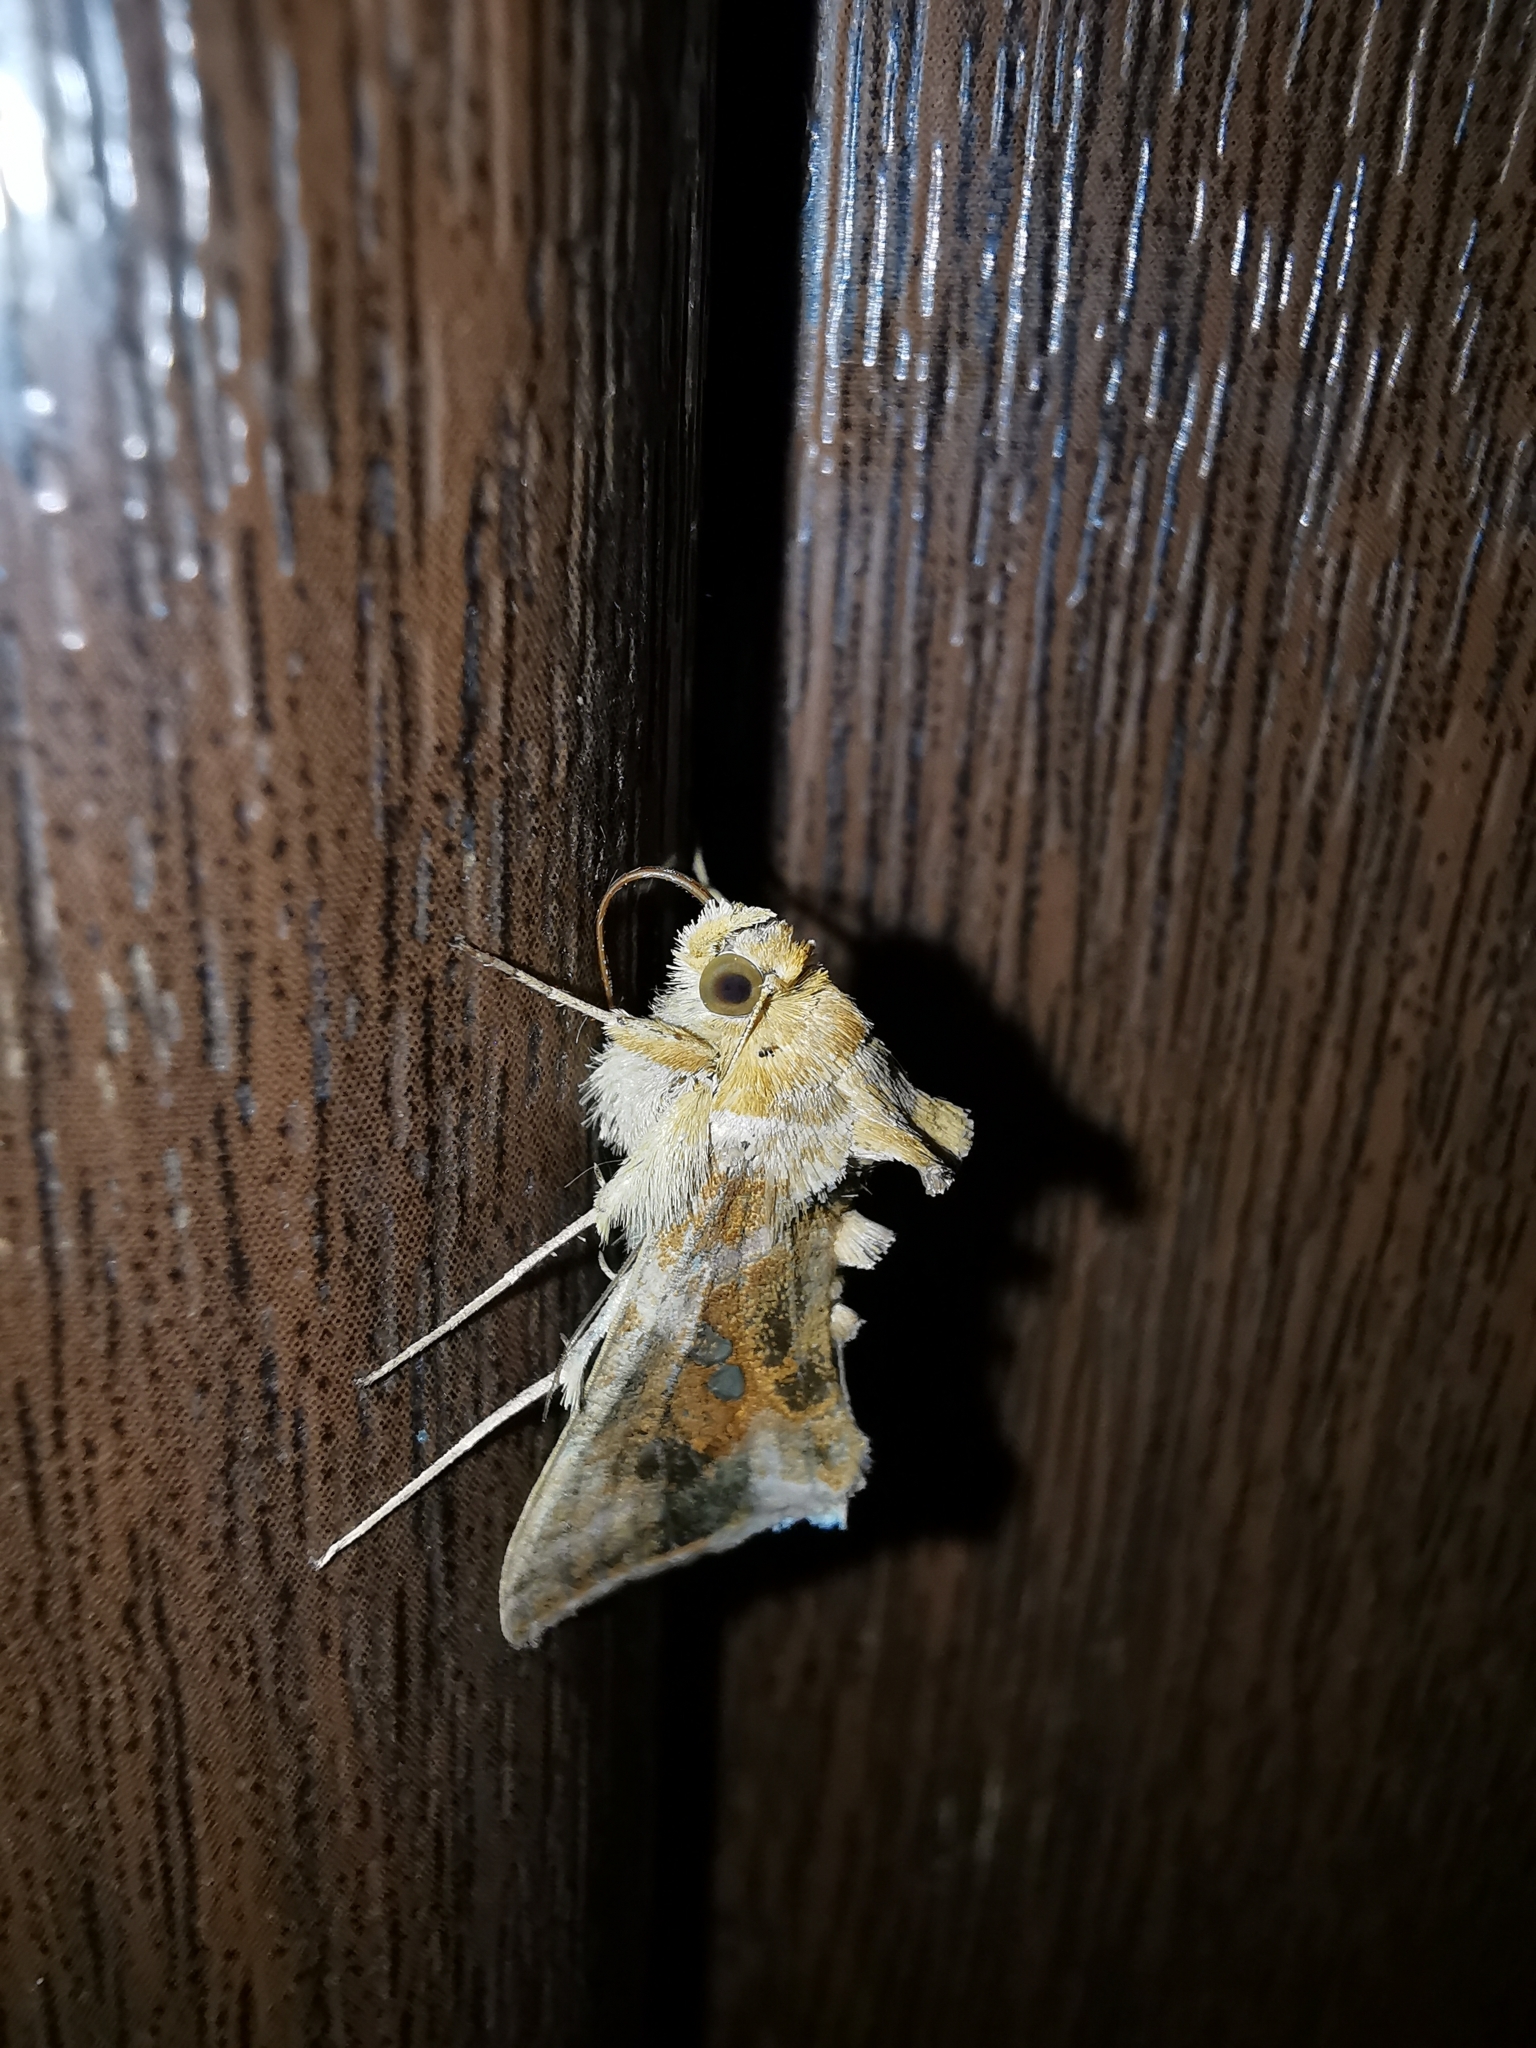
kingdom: Animalia
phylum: Arthropoda
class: Insecta
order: Lepidoptera
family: Noctuidae
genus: Chrysodeixis
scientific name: Chrysodeixis chalcites
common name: Golden twin-spot
